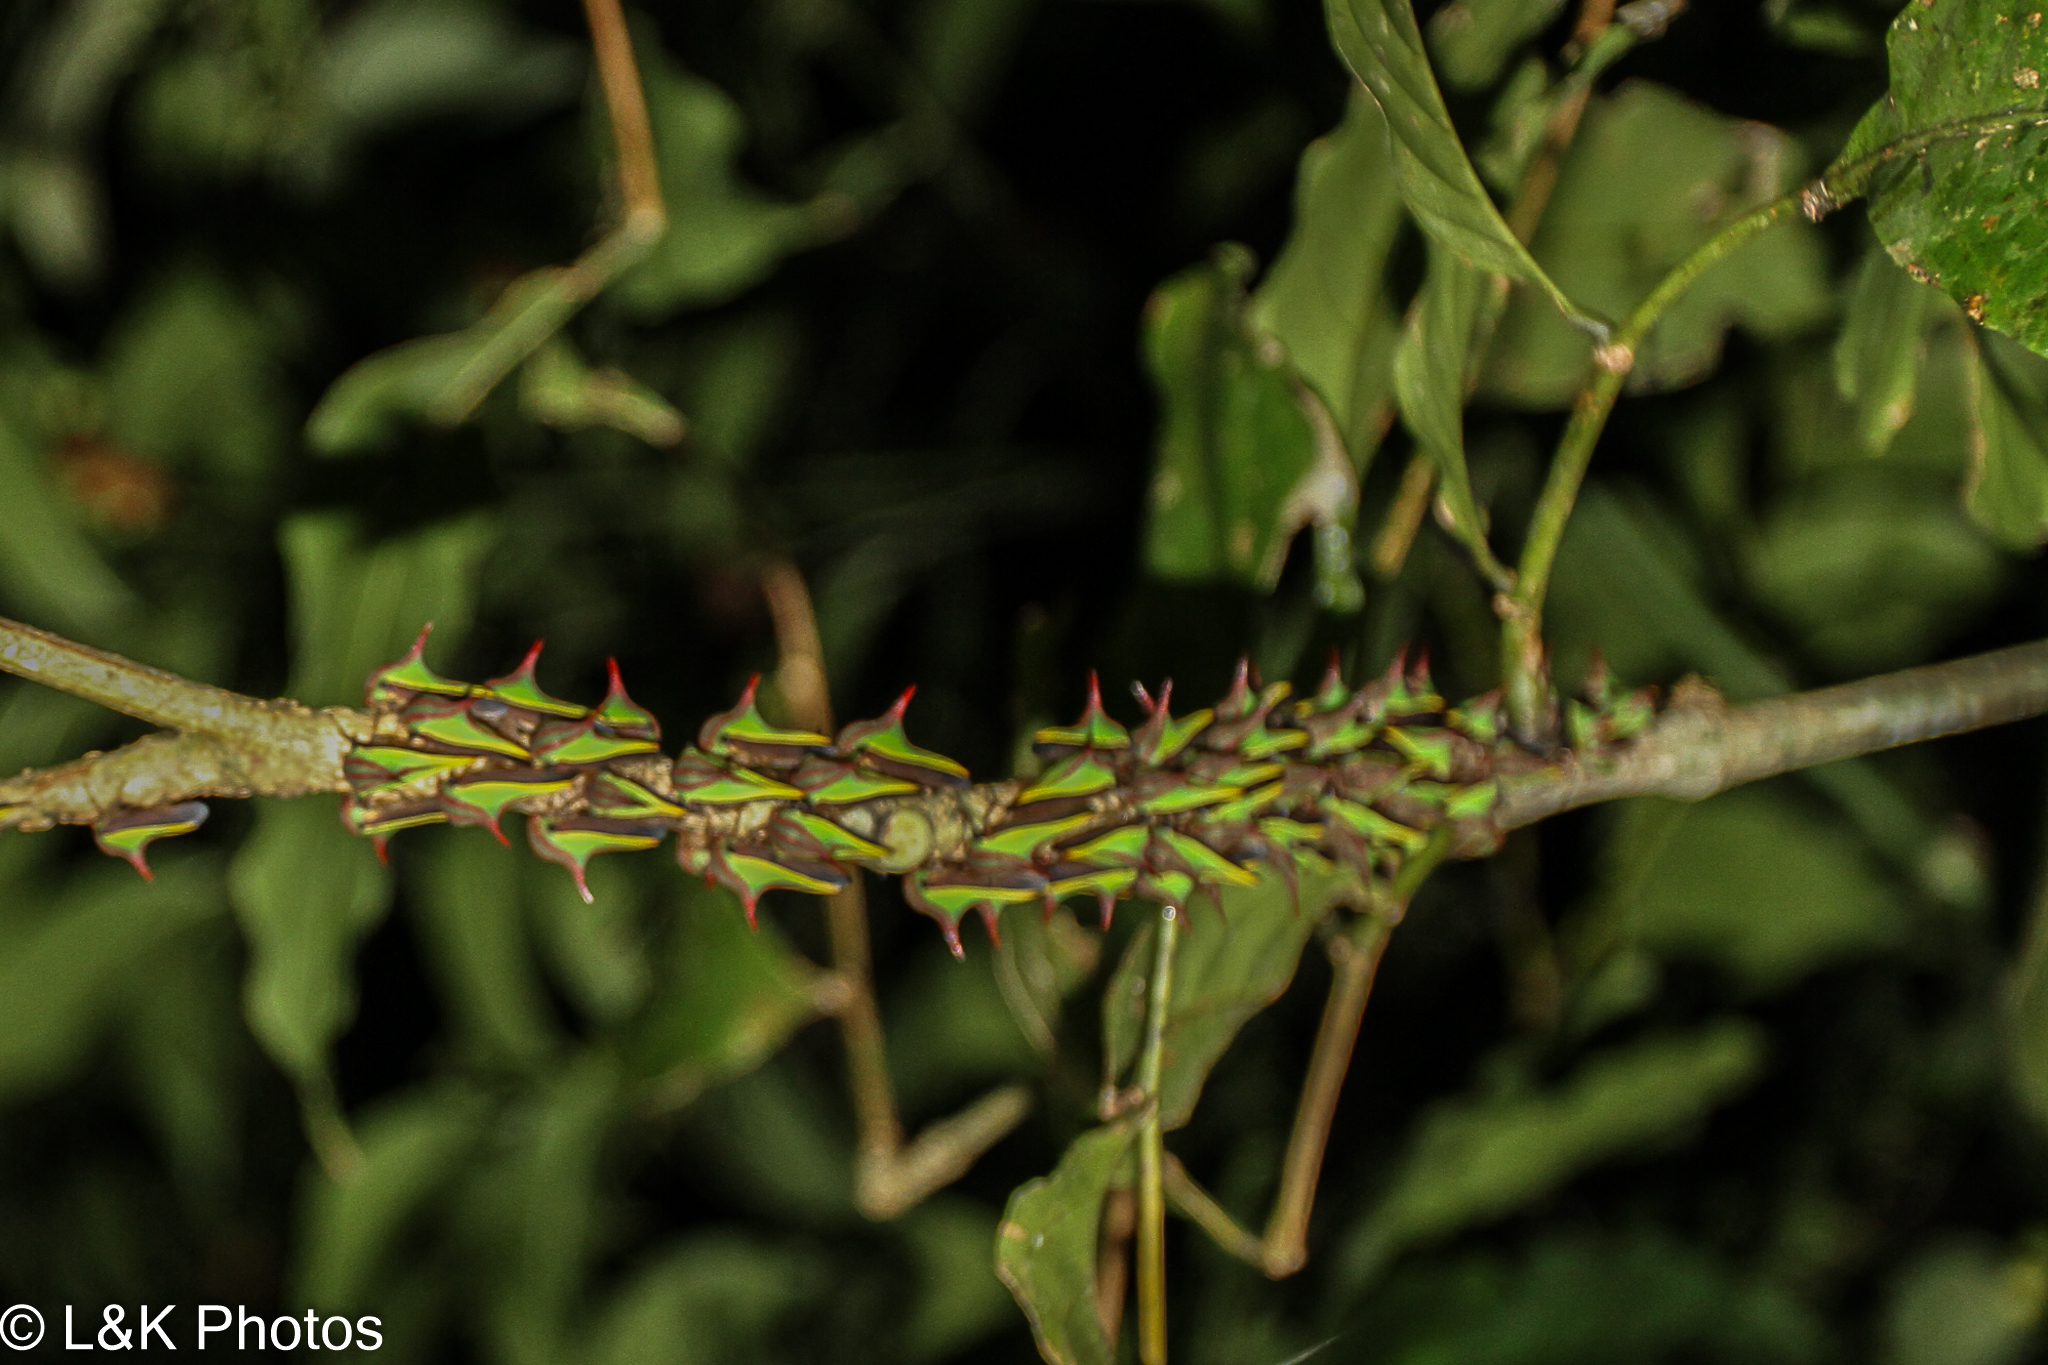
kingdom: Animalia
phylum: Arthropoda
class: Insecta
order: Hemiptera
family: Membracidae
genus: Umbonia
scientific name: Umbonia ataliba
